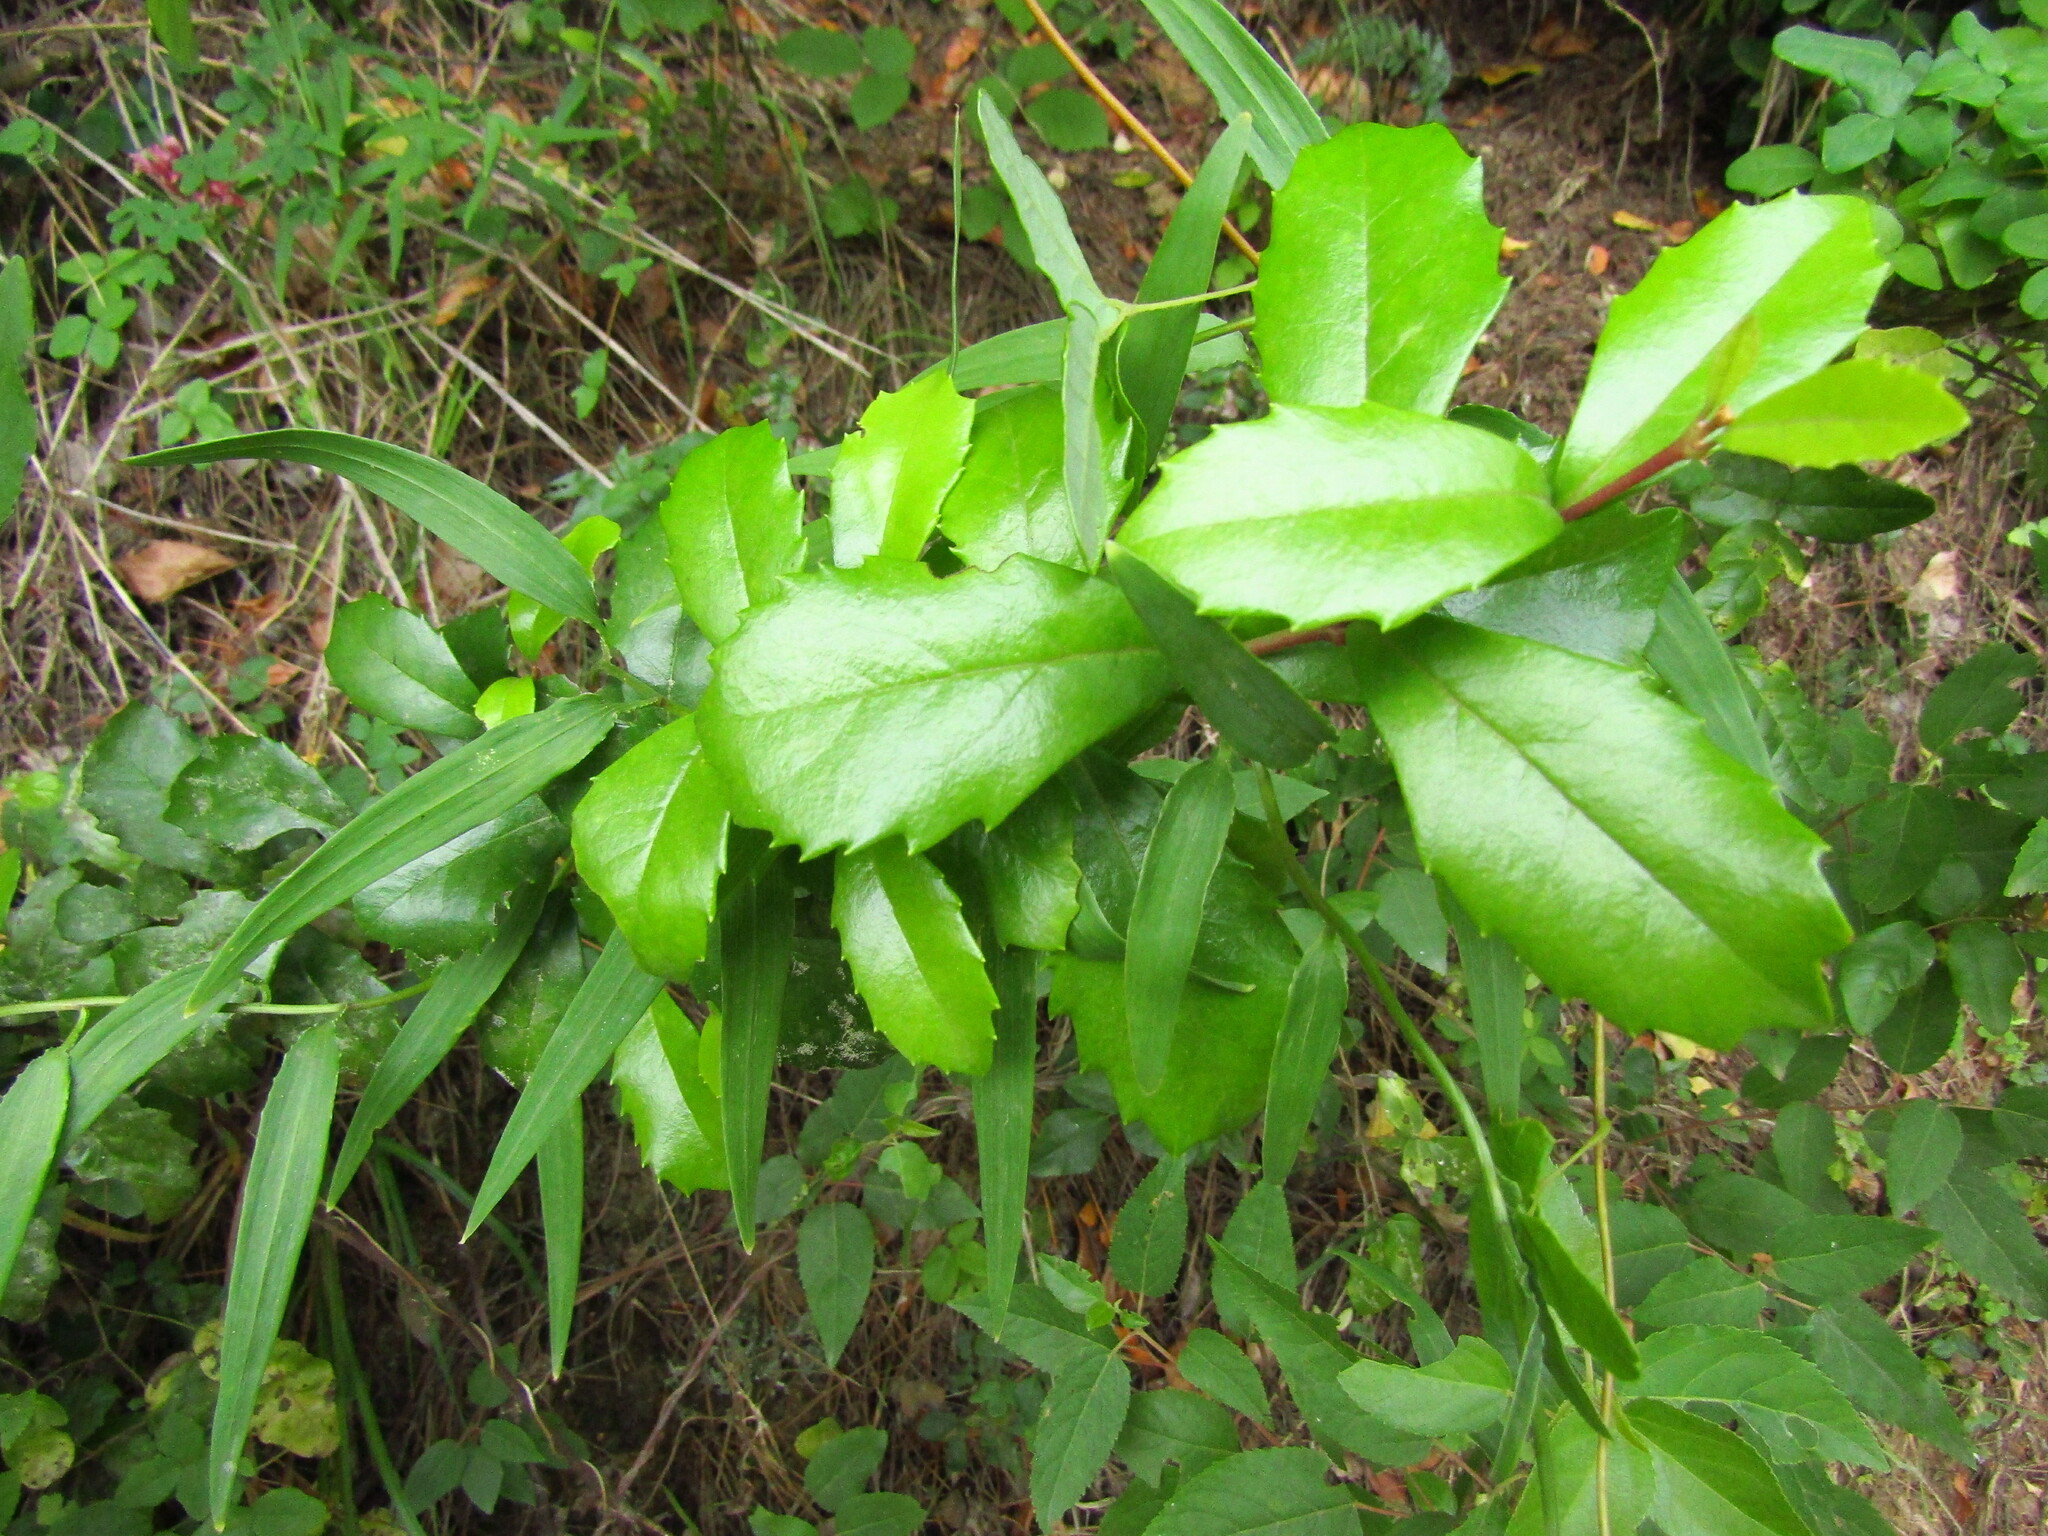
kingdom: Plantae
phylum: Tracheophyta
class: Magnoliopsida
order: Proteales
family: Proteaceae
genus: Lomatia
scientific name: Lomatia dentata
